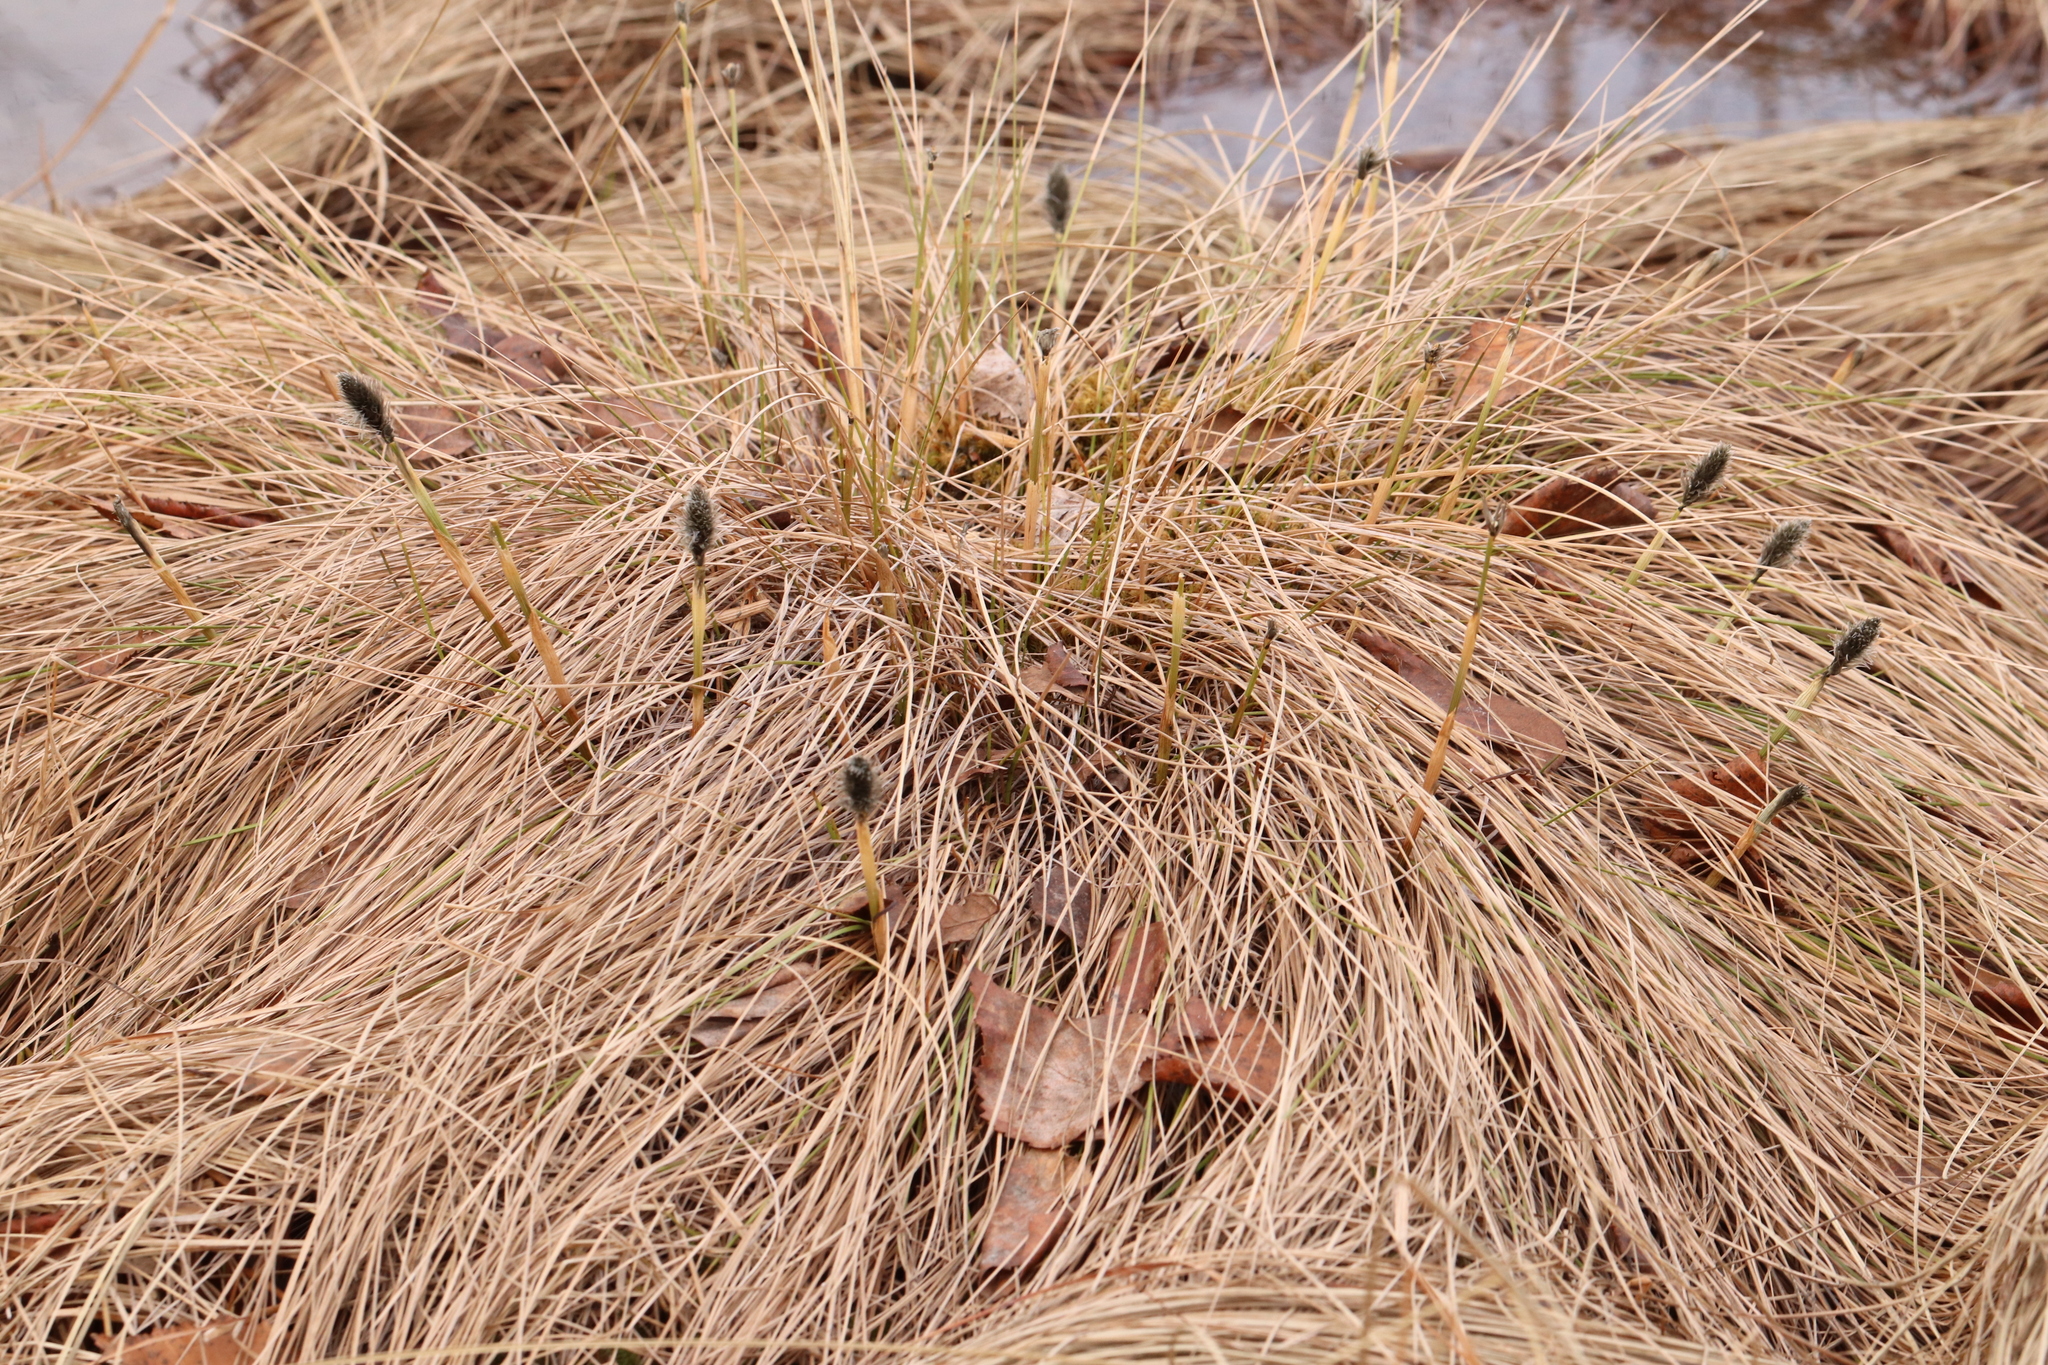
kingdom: Plantae
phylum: Tracheophyta
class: Liliopsida
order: Poales
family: Cyperaceae
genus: Eriophorum
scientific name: Eriophorum vaginatum
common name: Hare's-tail cottongrass
